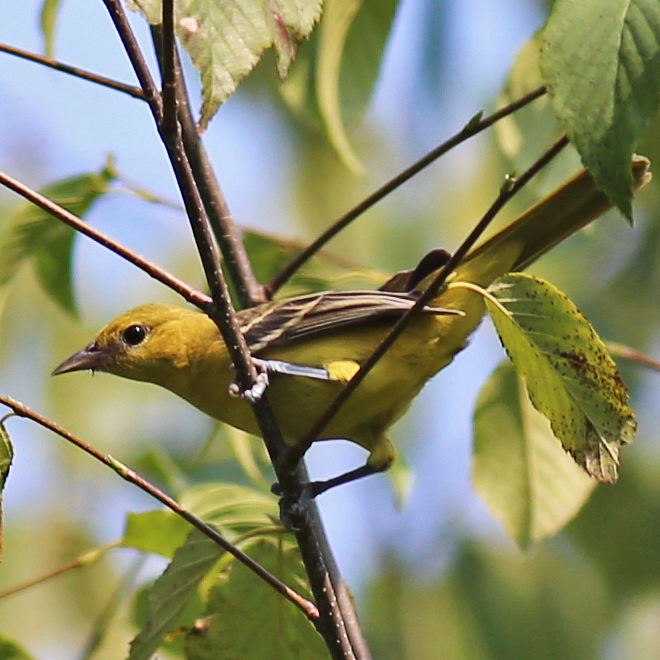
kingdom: Animalia
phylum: Chordata
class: Aves
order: Passeriformes
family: Icteridae
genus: Icterus
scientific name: Icterus spurius
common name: Orchard oriole
